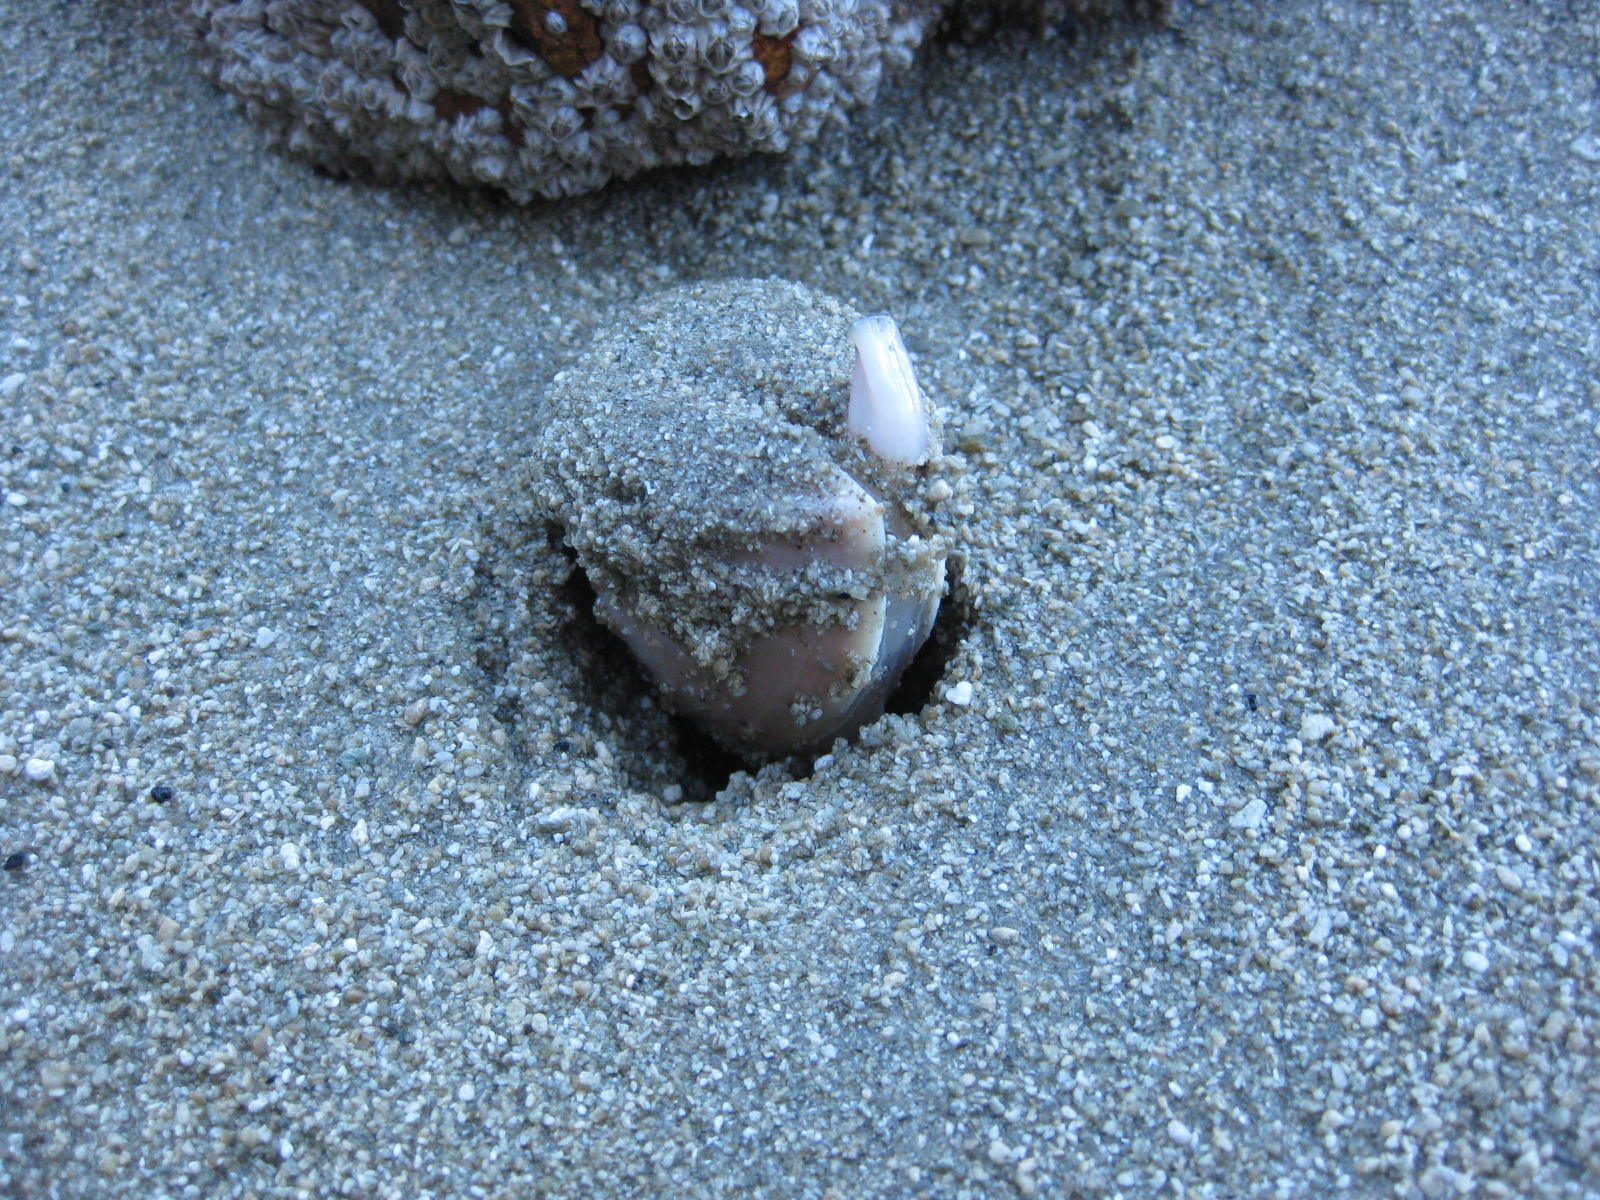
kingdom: Animalia
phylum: Mollusca
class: Bivalvia
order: Venerida
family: Mactridae
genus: Crassula
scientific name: Crassula aequilatera
